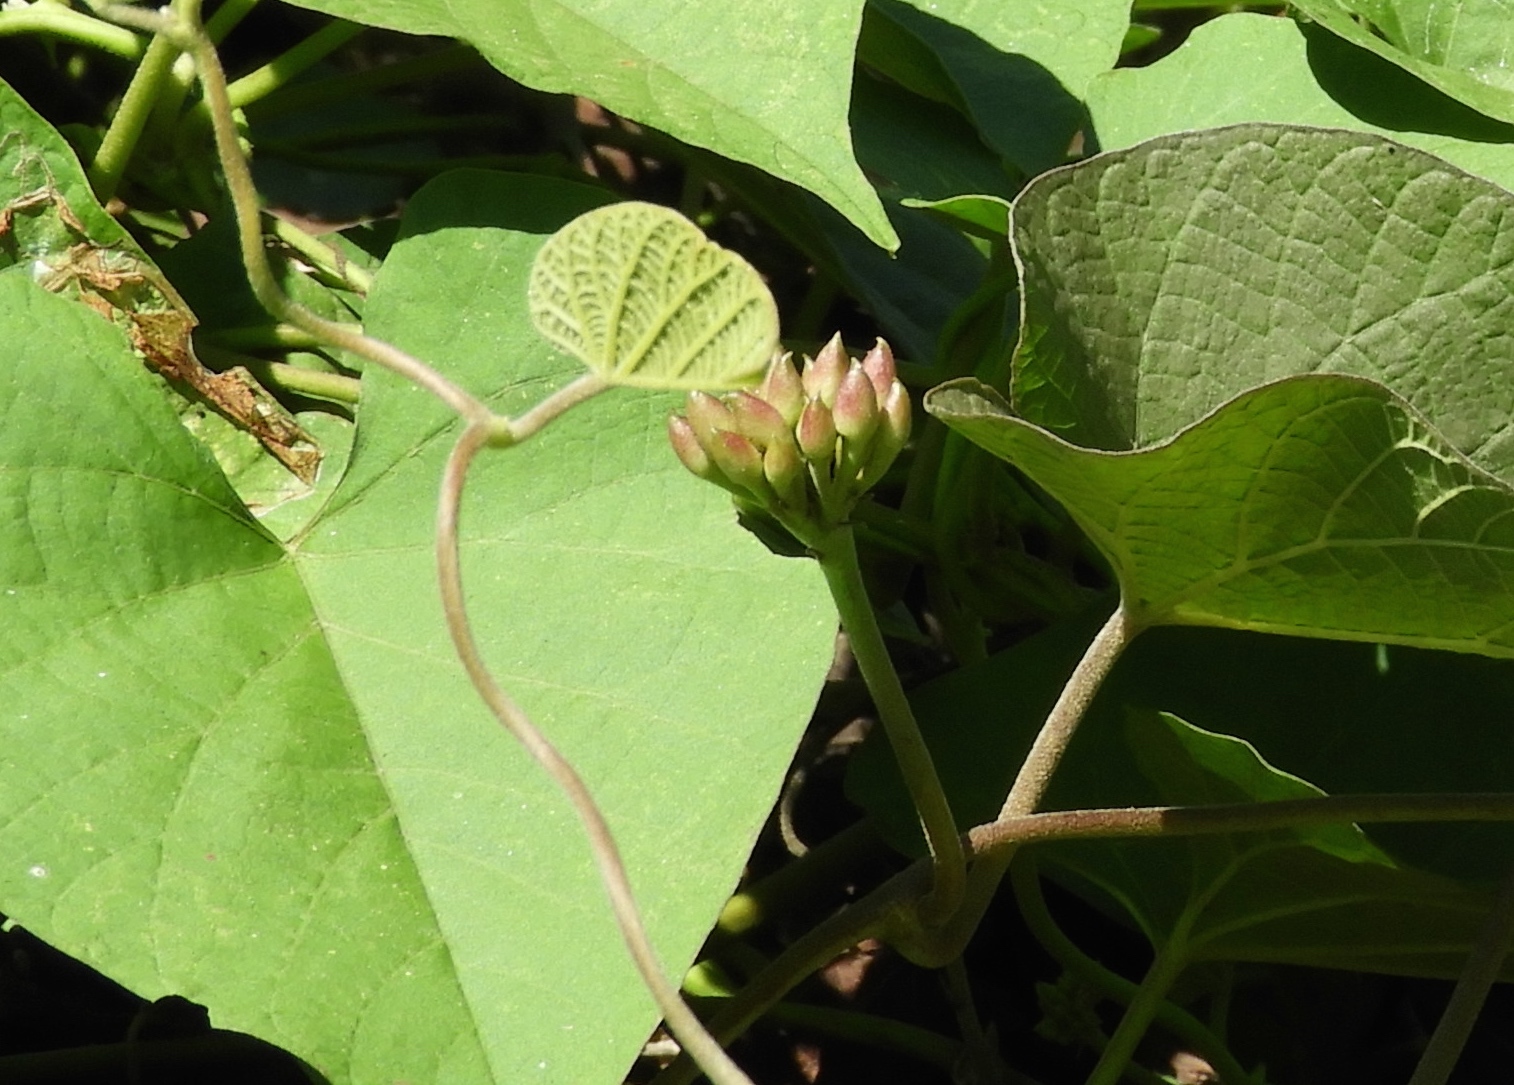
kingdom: Plantae
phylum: Tracheophyta
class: Magnoliopsida
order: Solanales
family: Convolvulaceae
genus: Camonea
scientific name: Camonea umbellata
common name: Hogvine
